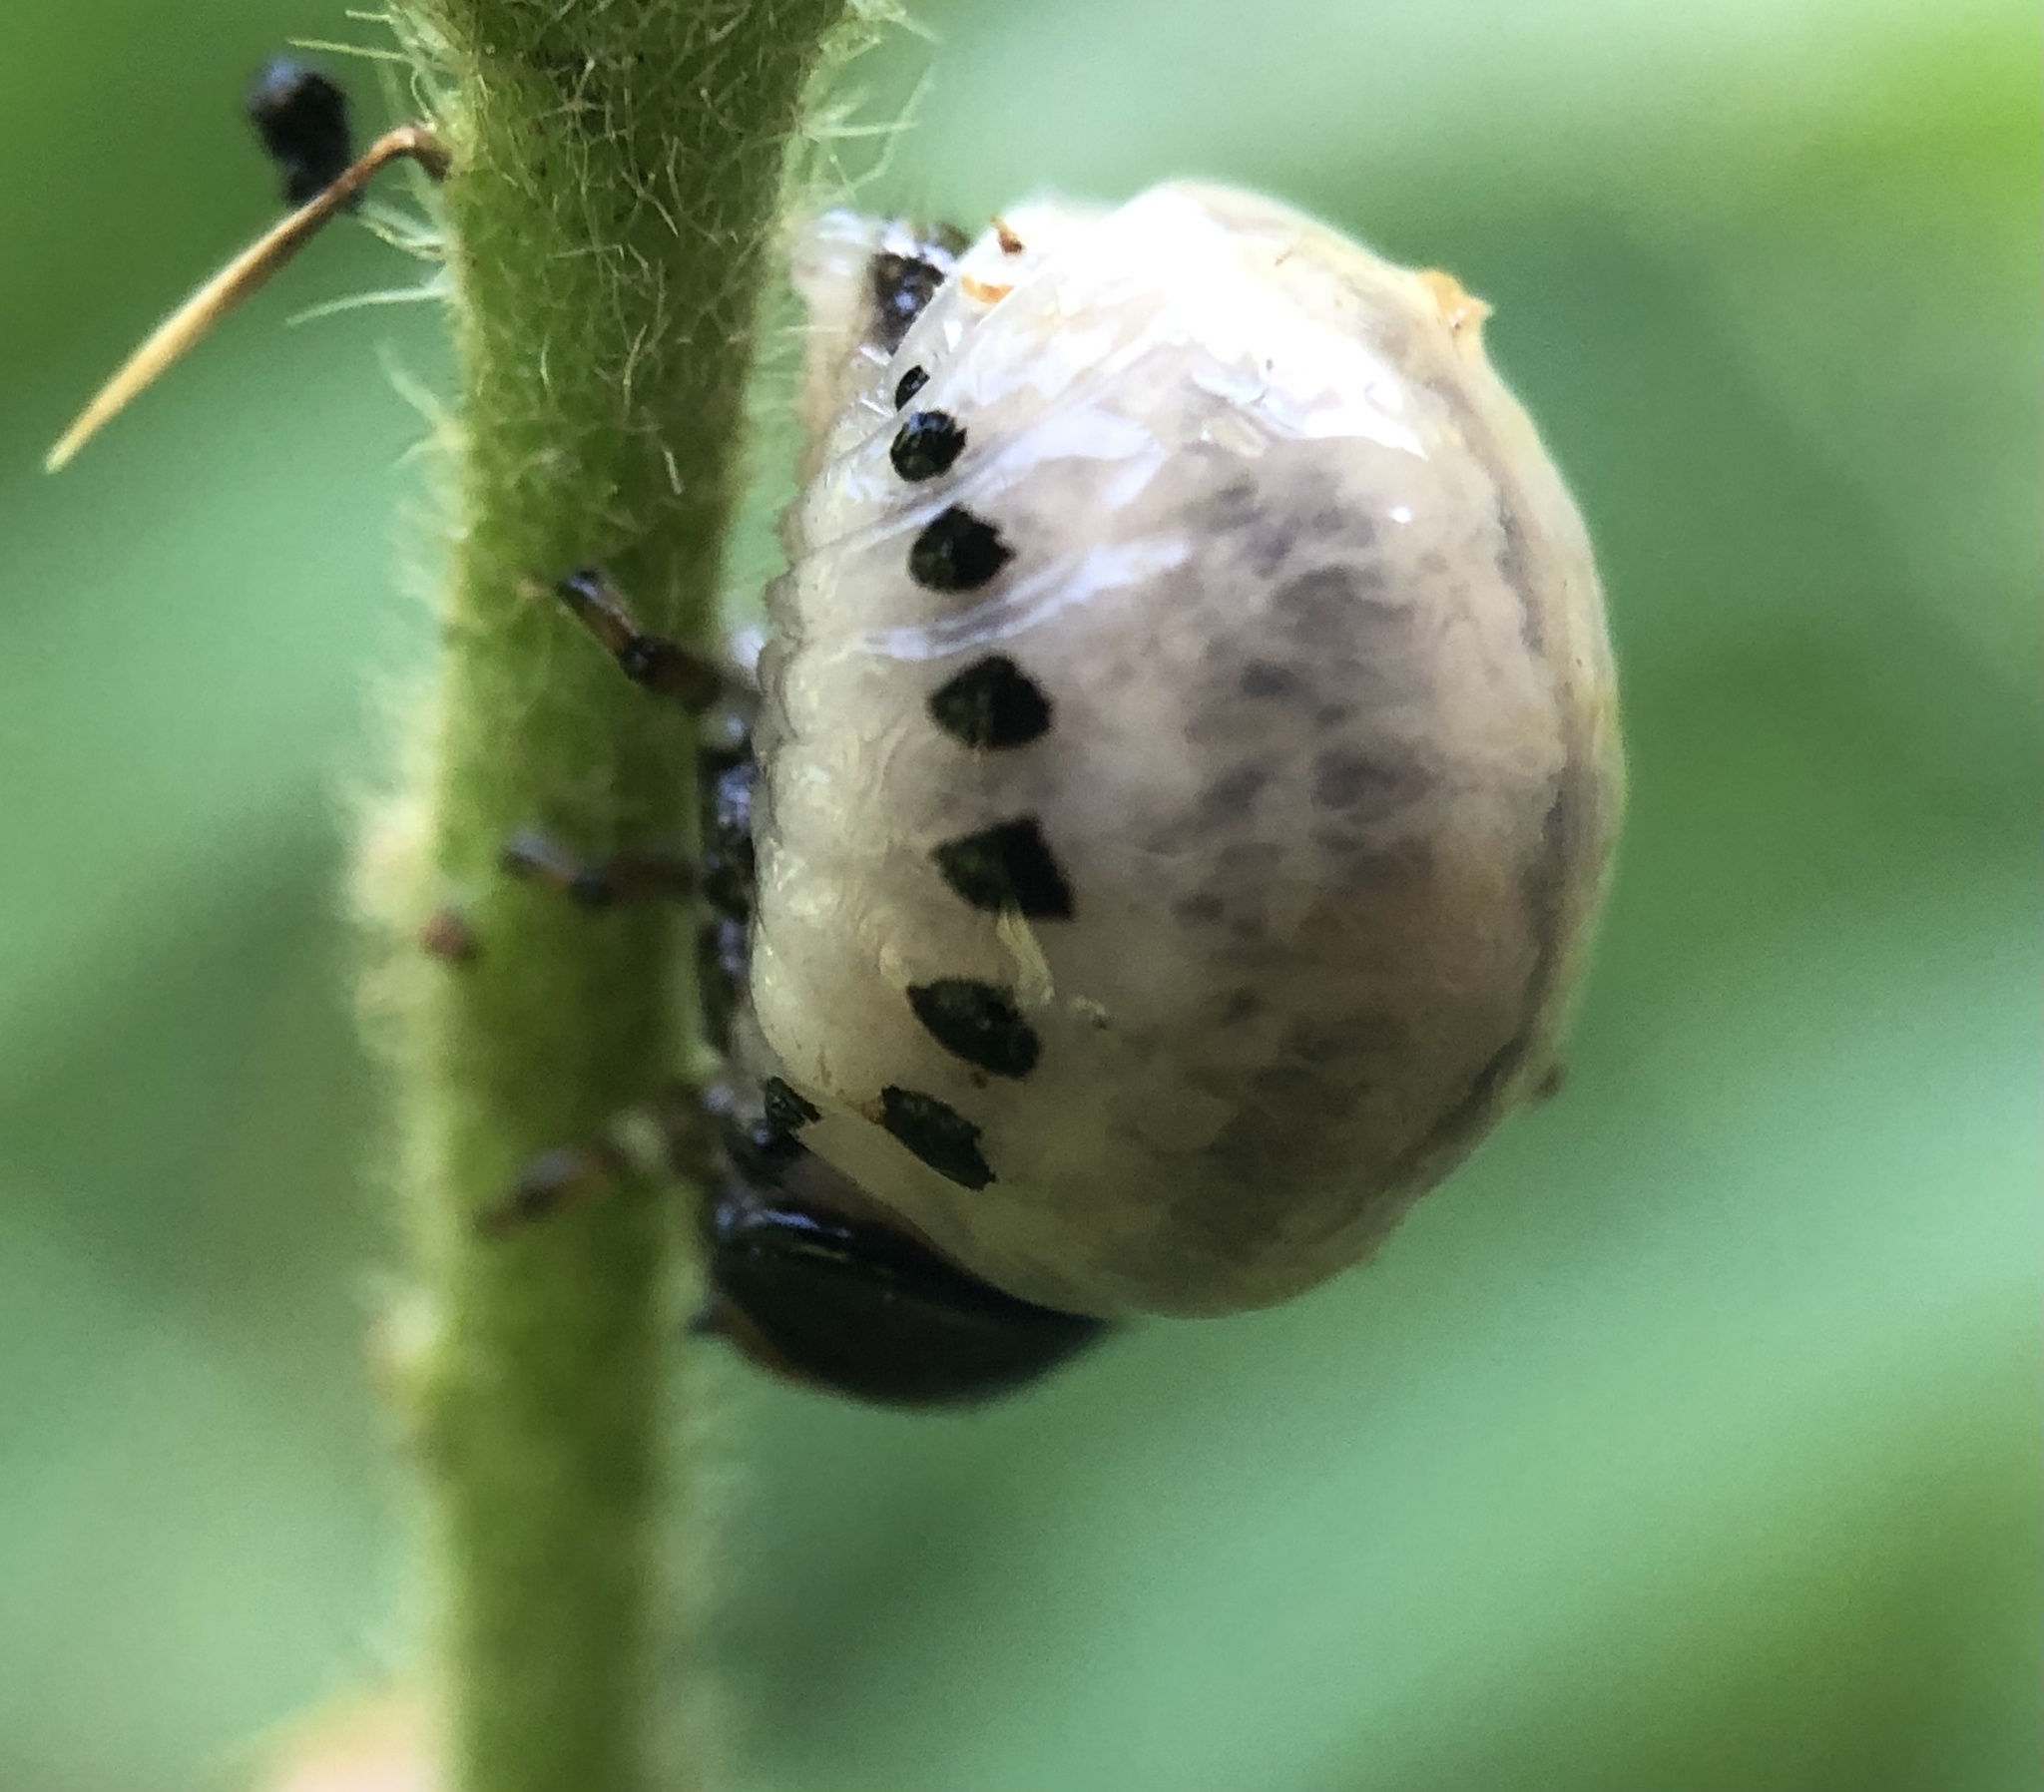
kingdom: Animalia
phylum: Arthropoda
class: Insecta
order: Coleoptera
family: Chrysomelidae
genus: Leptinotarsa
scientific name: Leptinotarsa juncta
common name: False potato beetle
